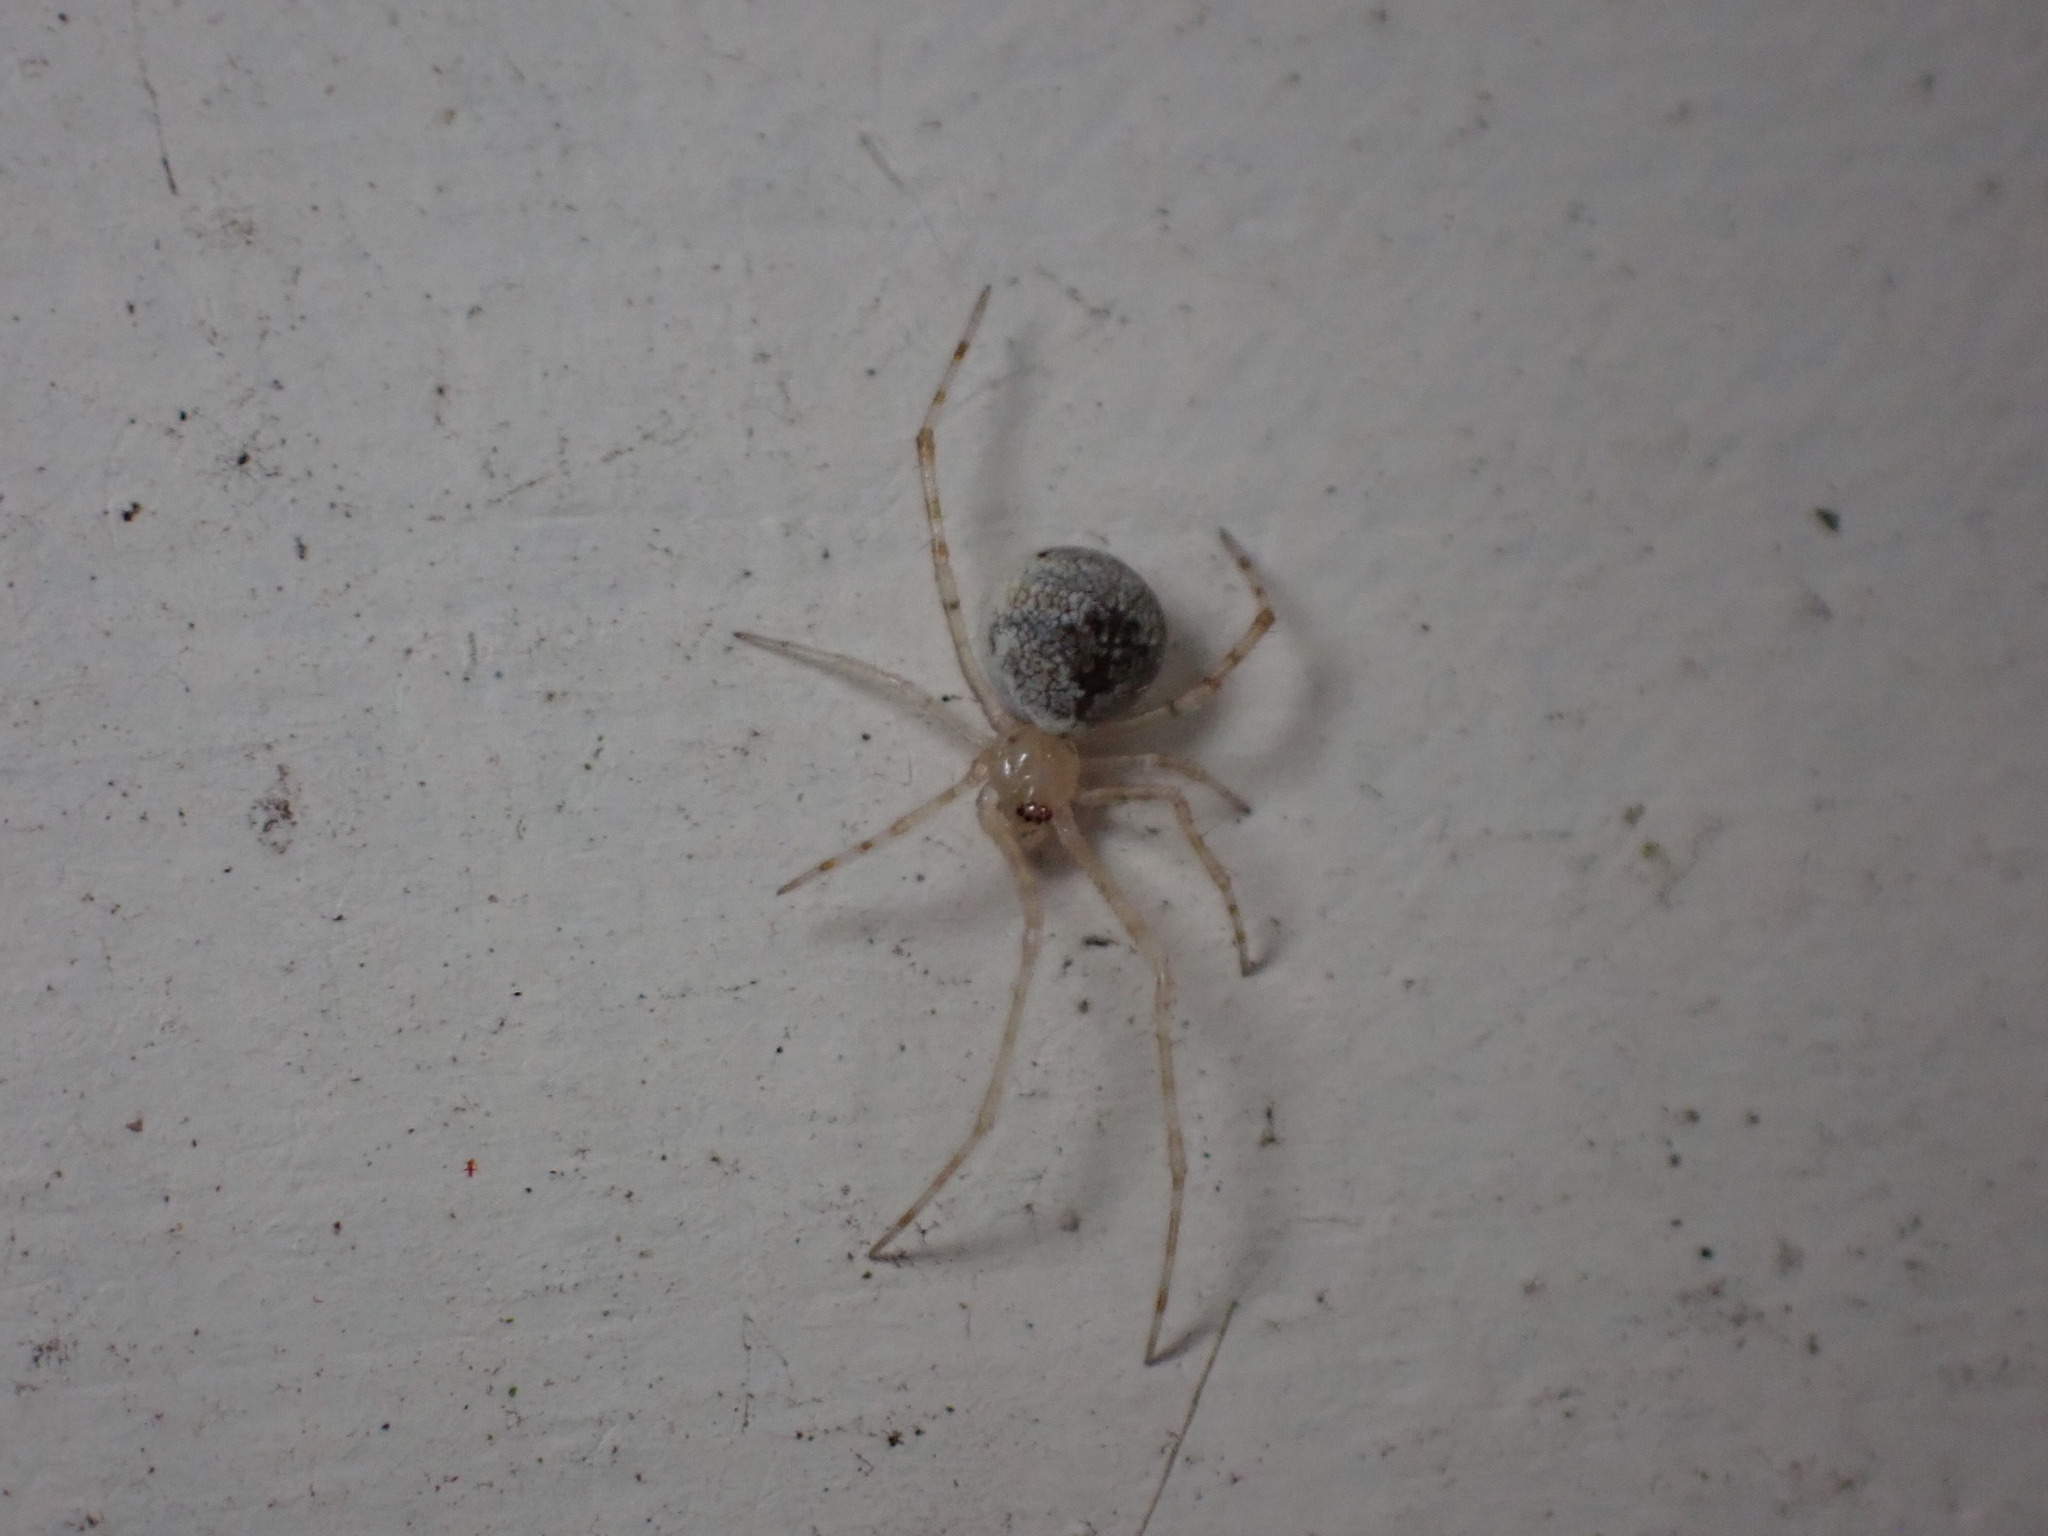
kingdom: Animalia
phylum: Arthropoda
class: Arachnida
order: Araneae
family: Theridiidae
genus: Cryptachaea
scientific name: Cryptachaea gigantipes
